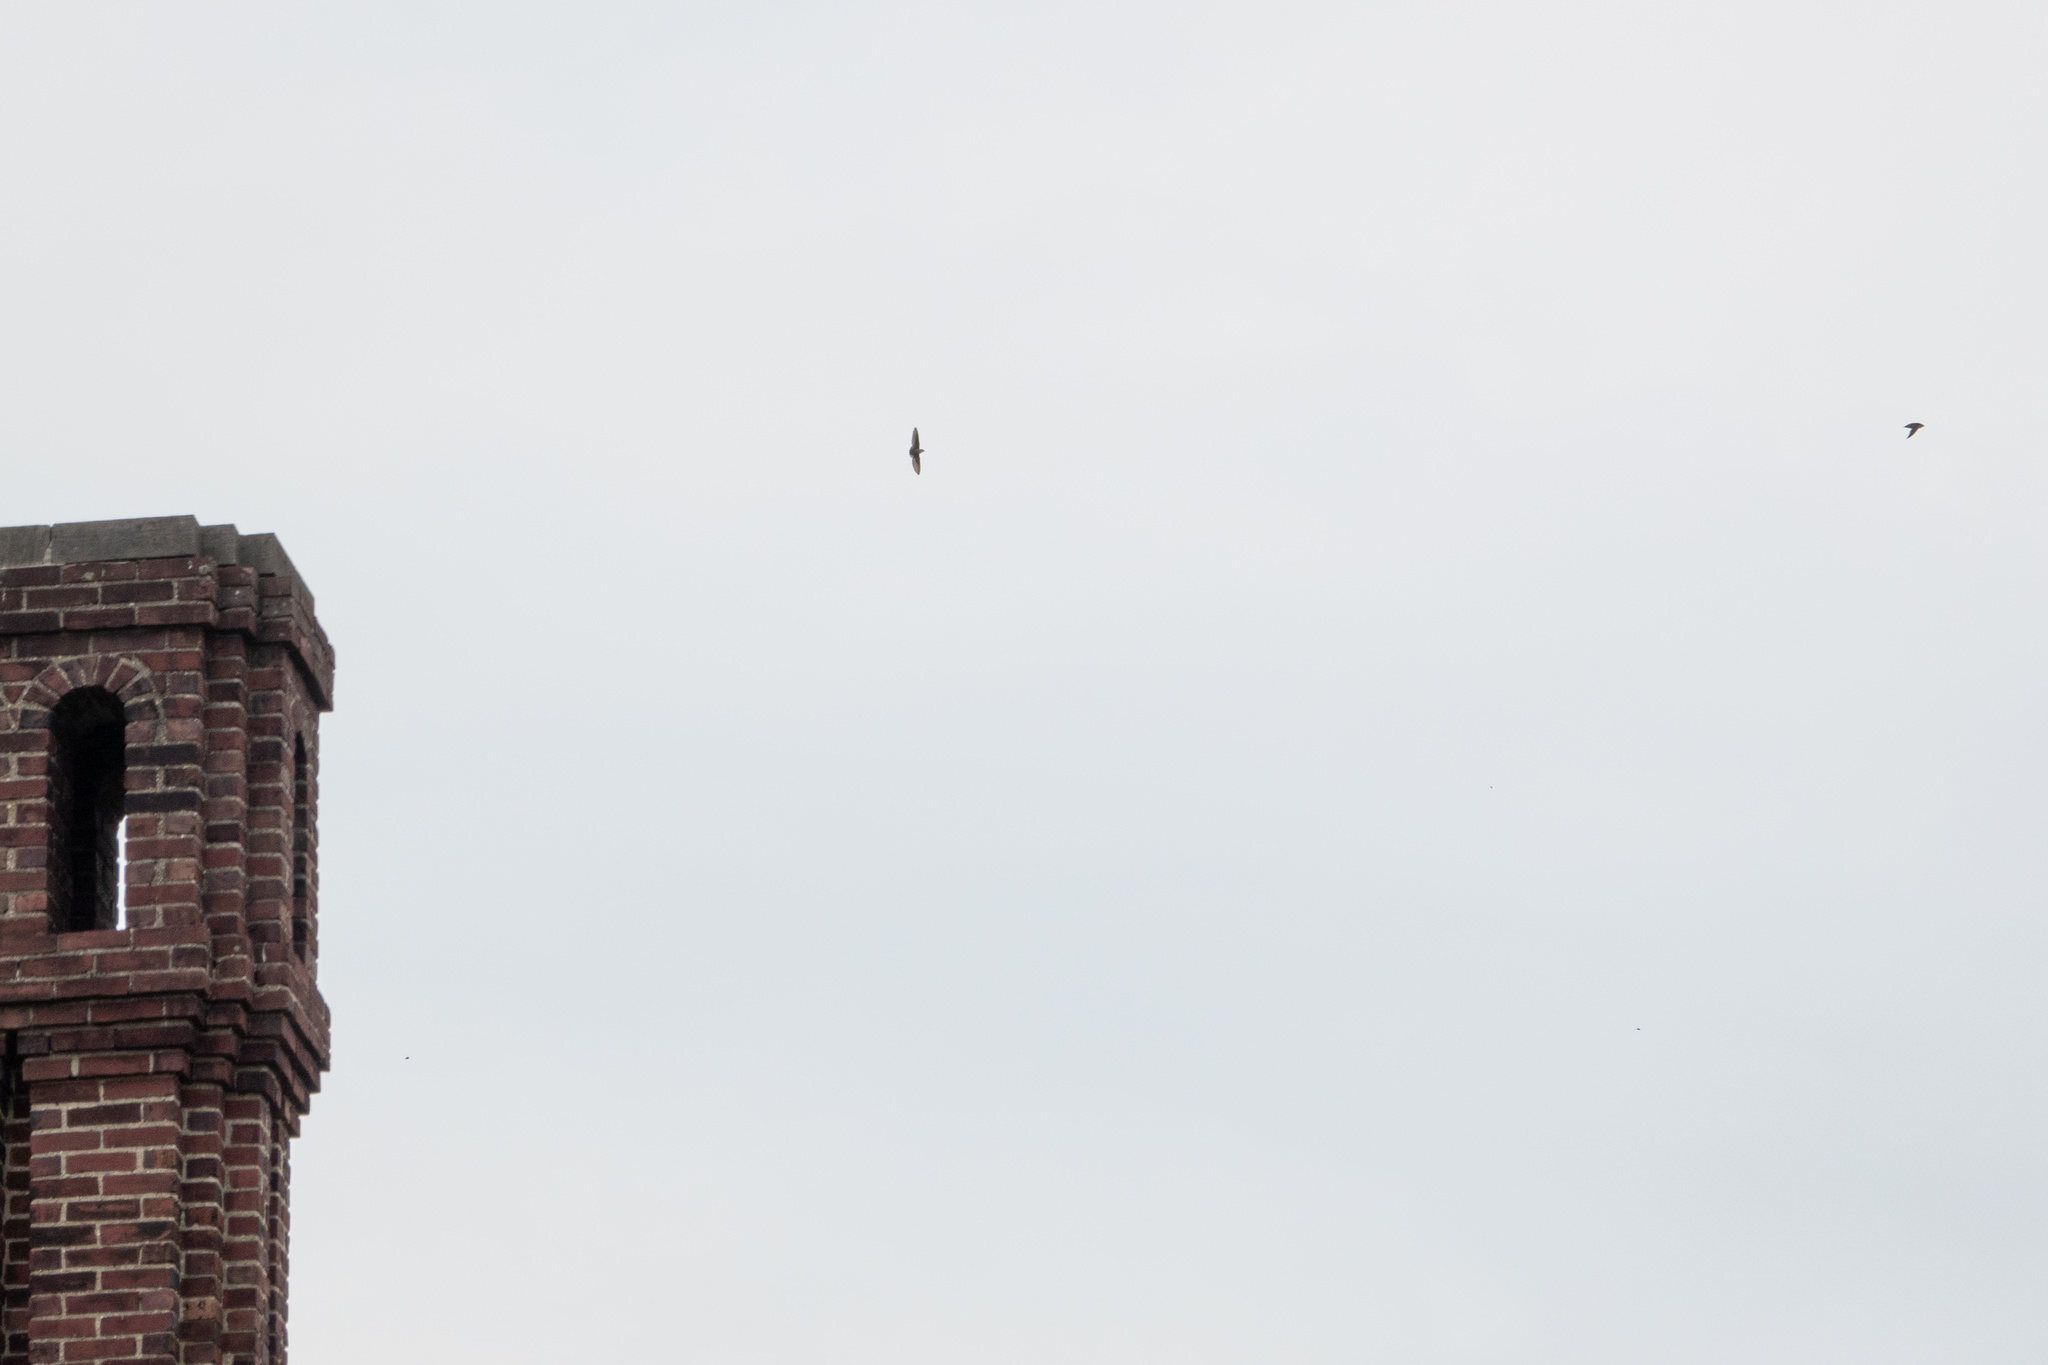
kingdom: Animalia
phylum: Chordata
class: Aves
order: Apodiformes
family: Apodidae
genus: Chaetura
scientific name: Chaetura pelagica
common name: Chimney swift
